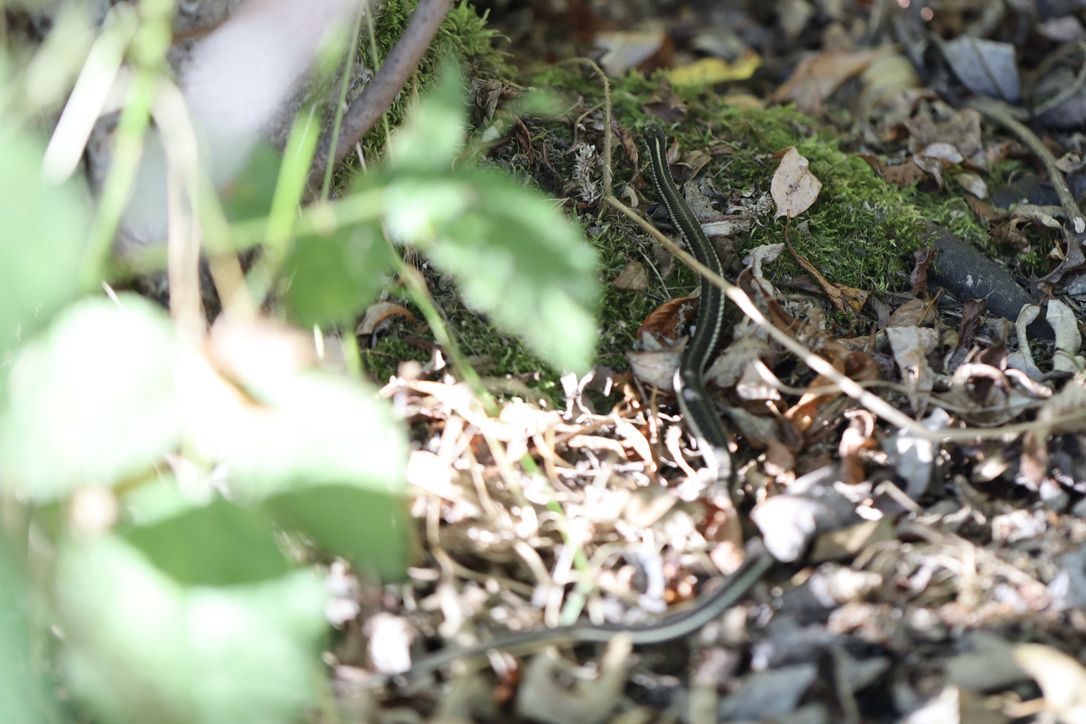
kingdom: Animalia
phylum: Chordata
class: Squamata
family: Colubridae
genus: Thamnophis
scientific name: Thamnophis ordinoides
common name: Northwestern garter snake
